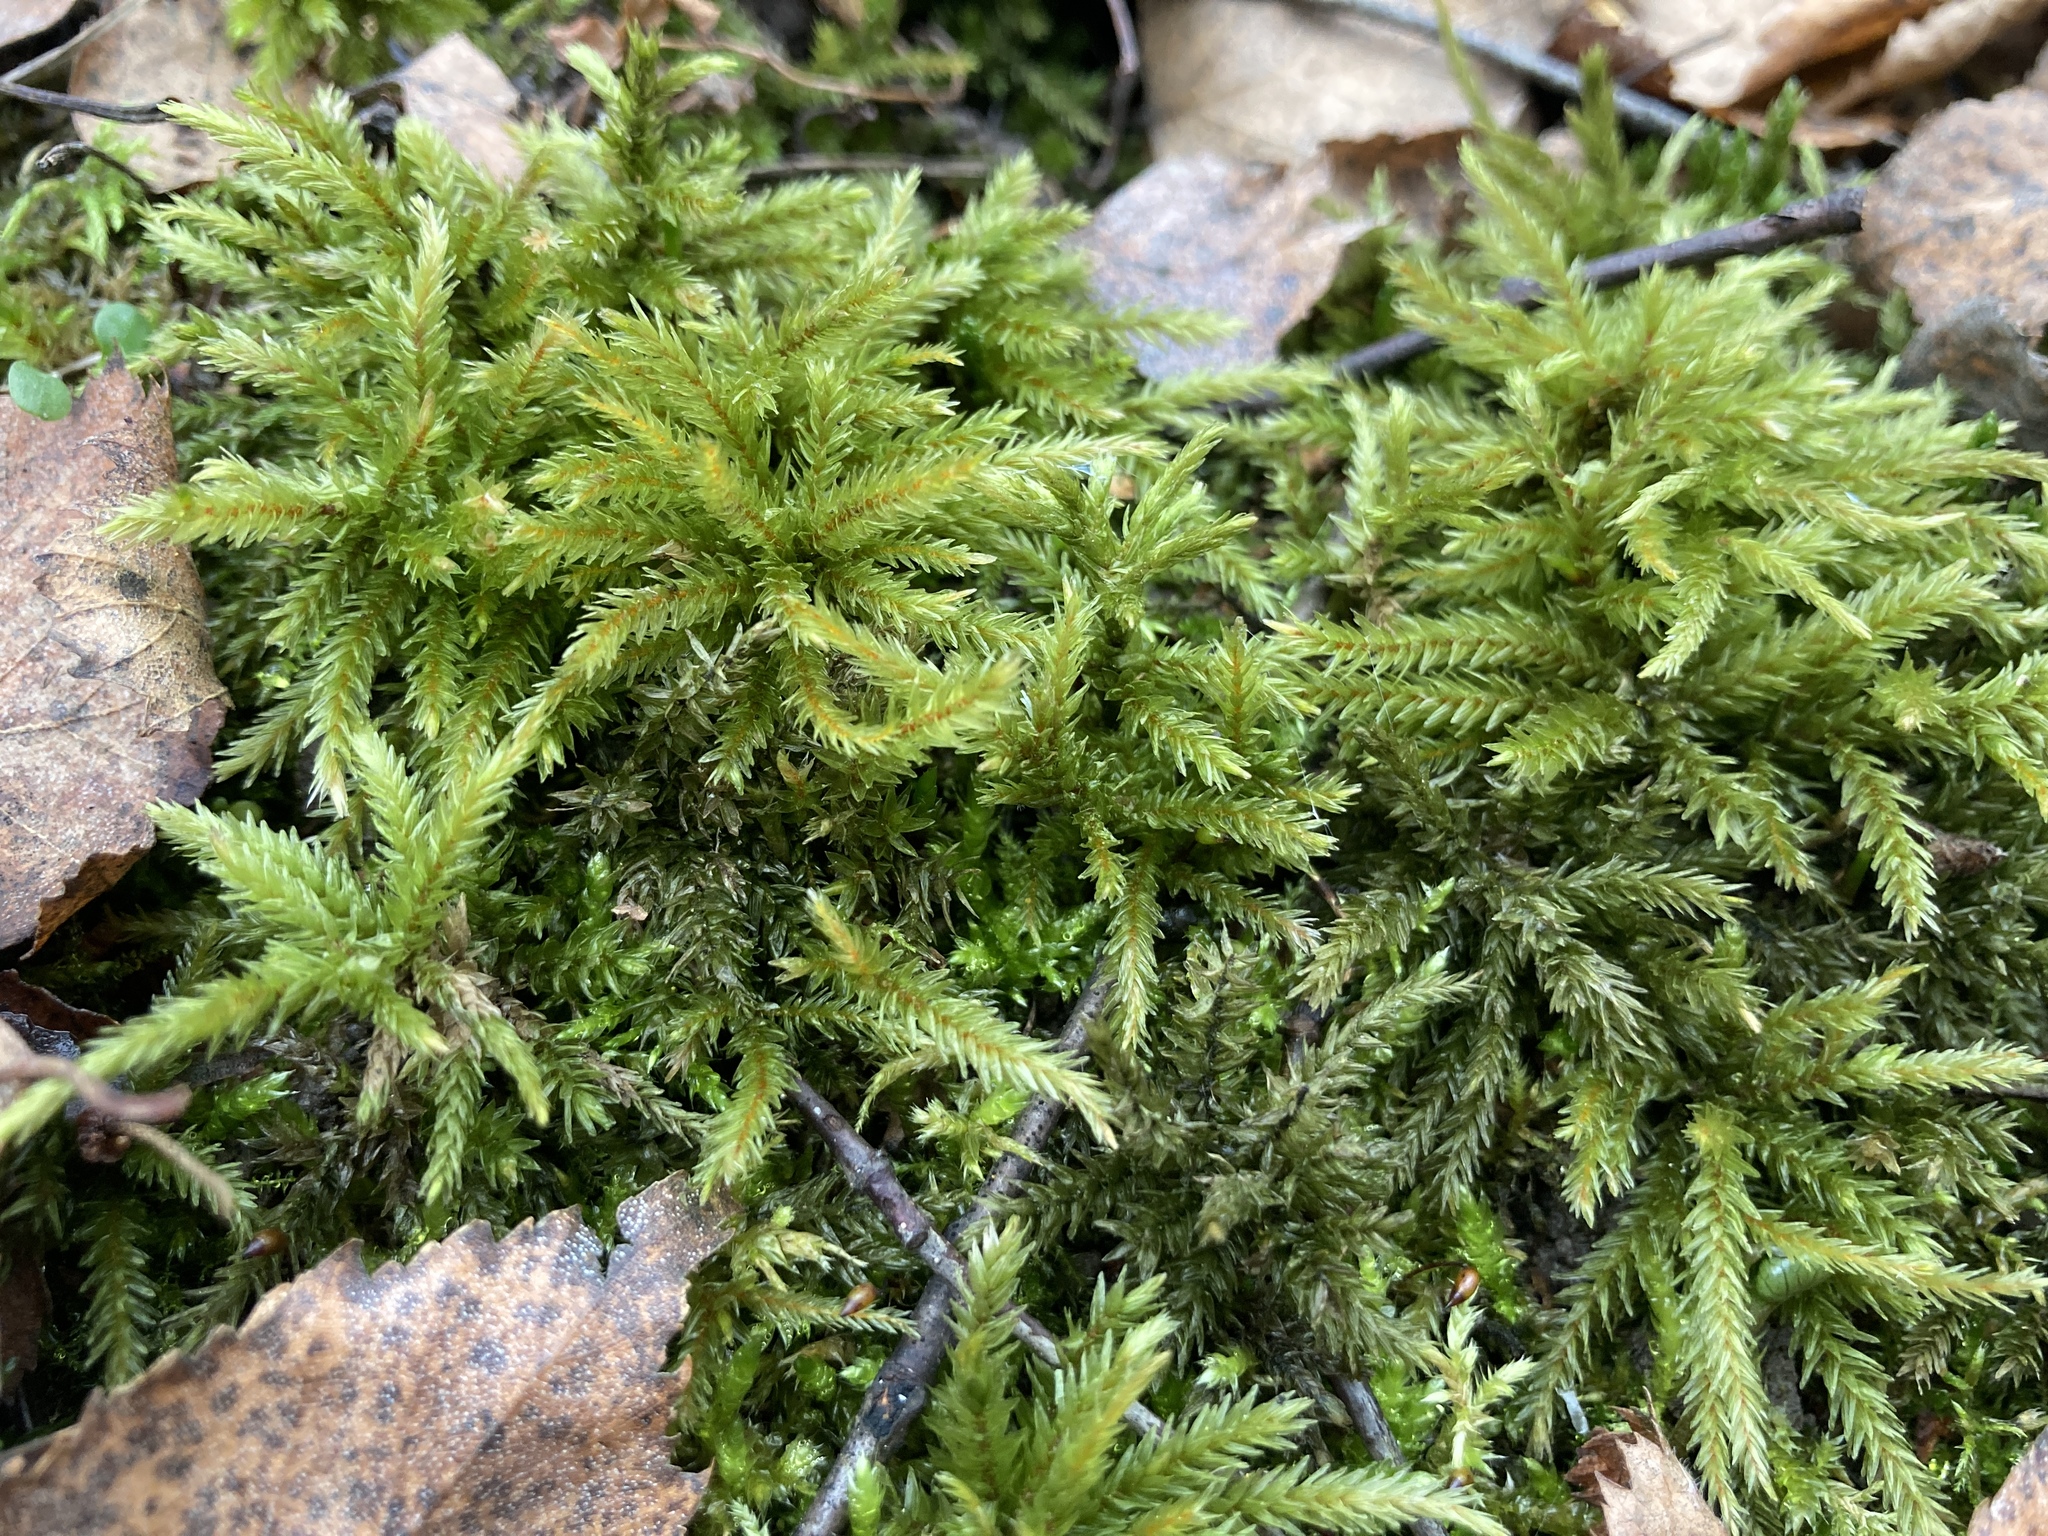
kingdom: Plantae
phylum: Bryophyta
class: Bryopsida
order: Hypnales
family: Climaciaceae
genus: Climacium
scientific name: Climacium dendroides
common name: Northern tree moss
